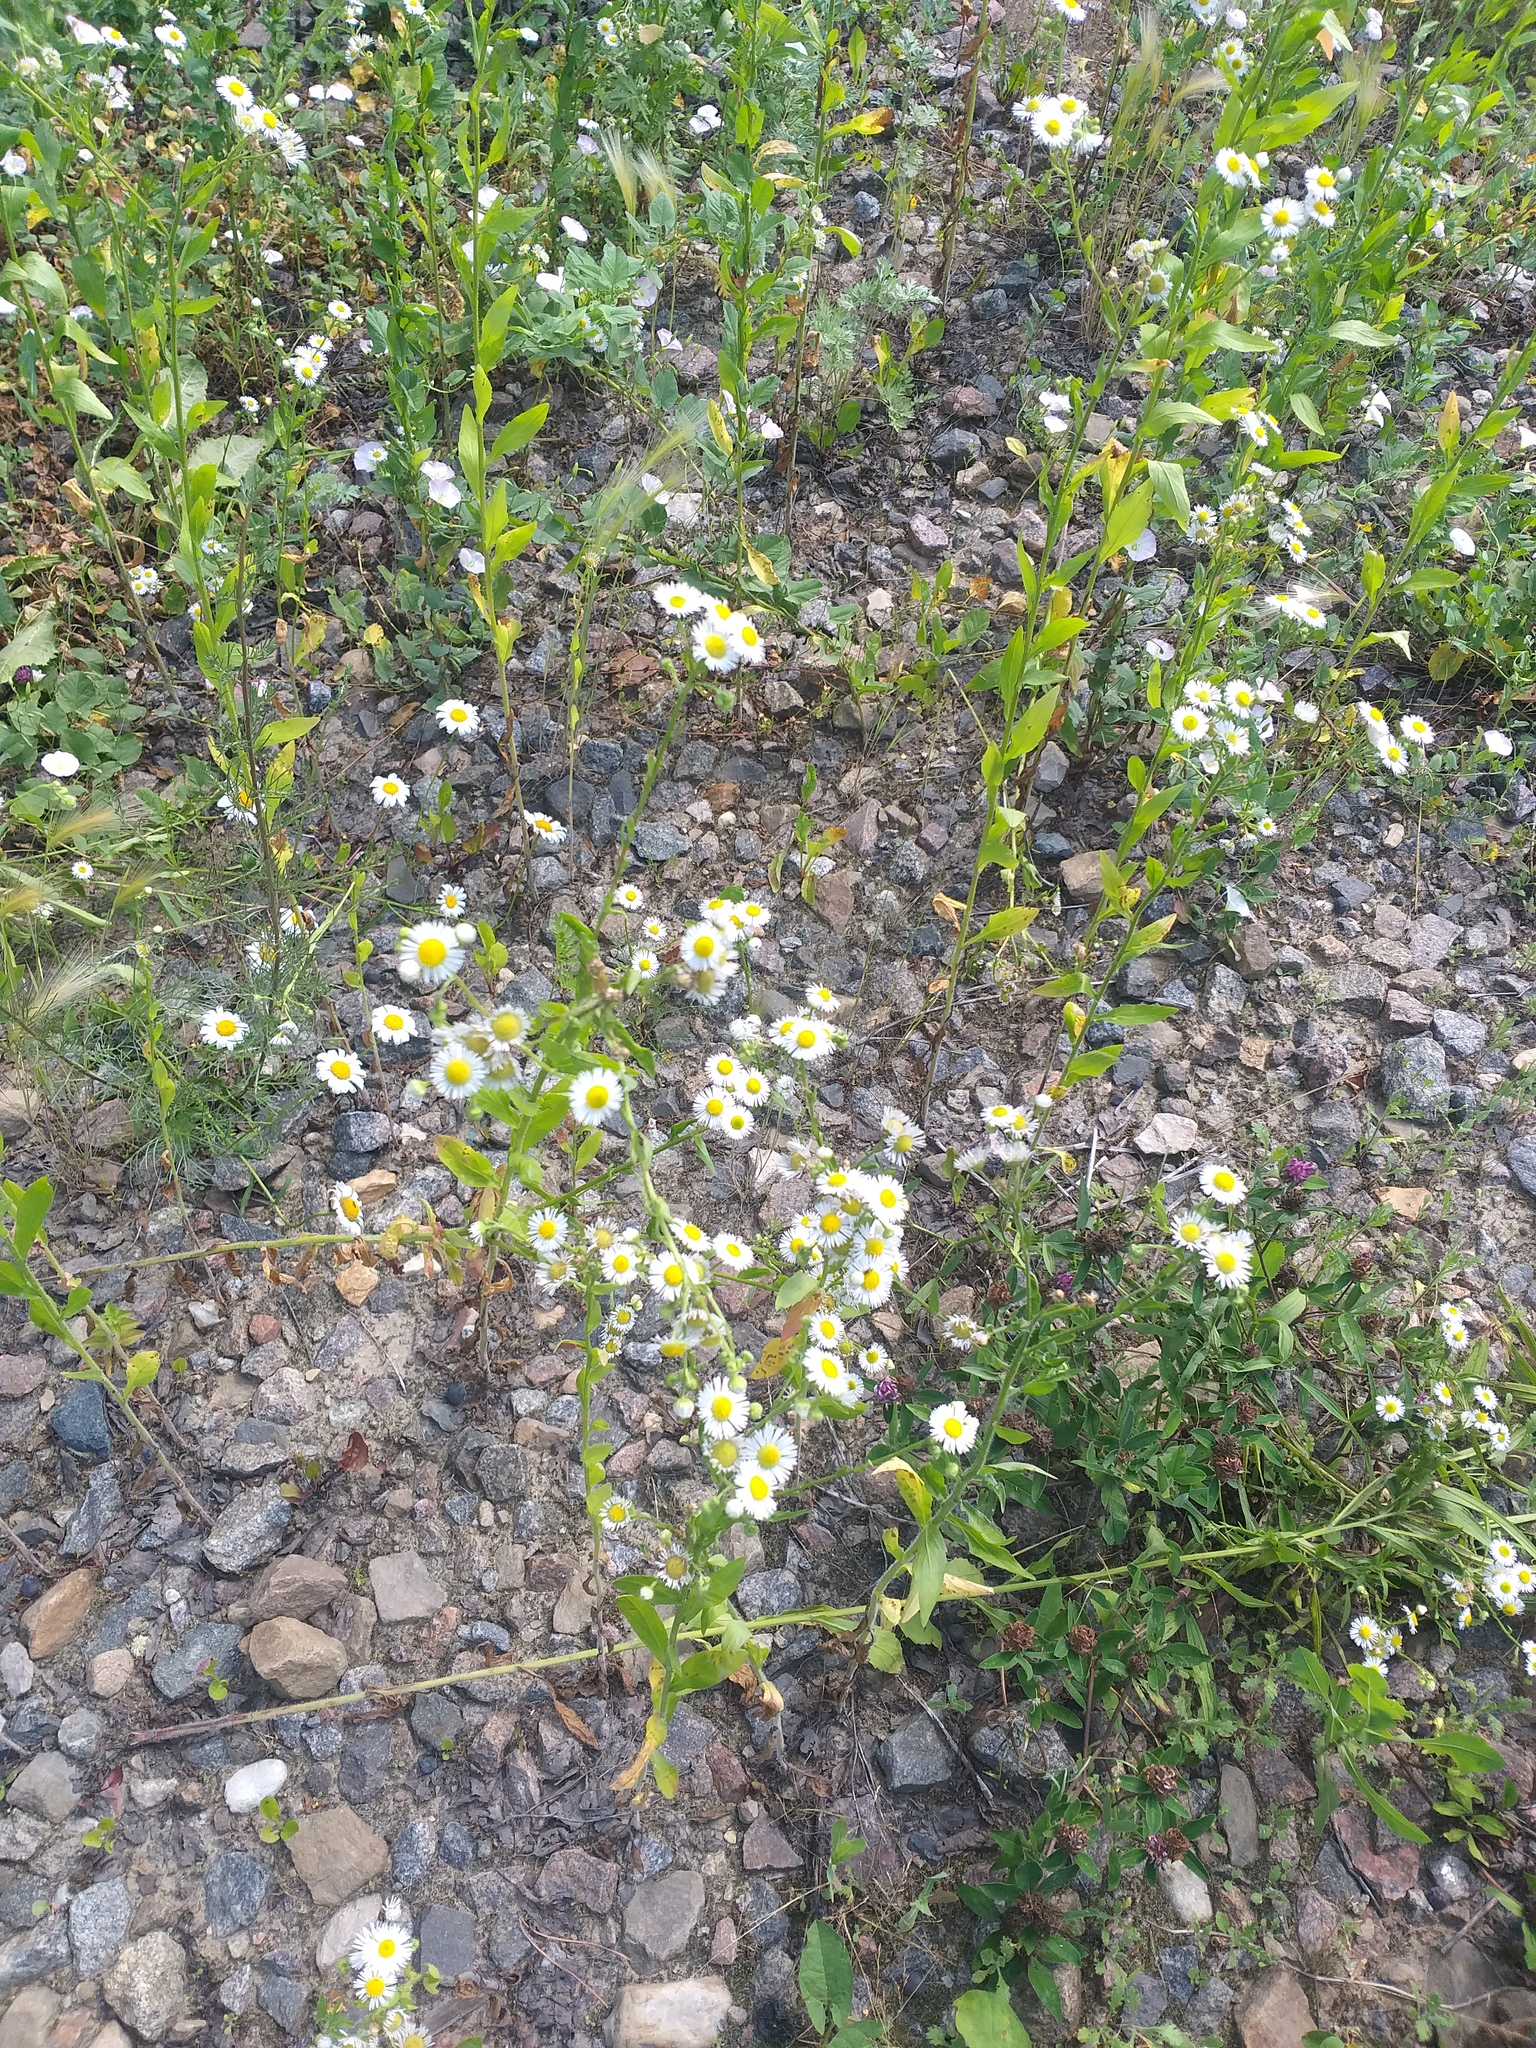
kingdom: Plantae
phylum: Tracheophyta
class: Magnoliopsida
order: Asterales
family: Asteraceae
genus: Erigeron
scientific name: Erigeron annuus
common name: Tall fleabane
